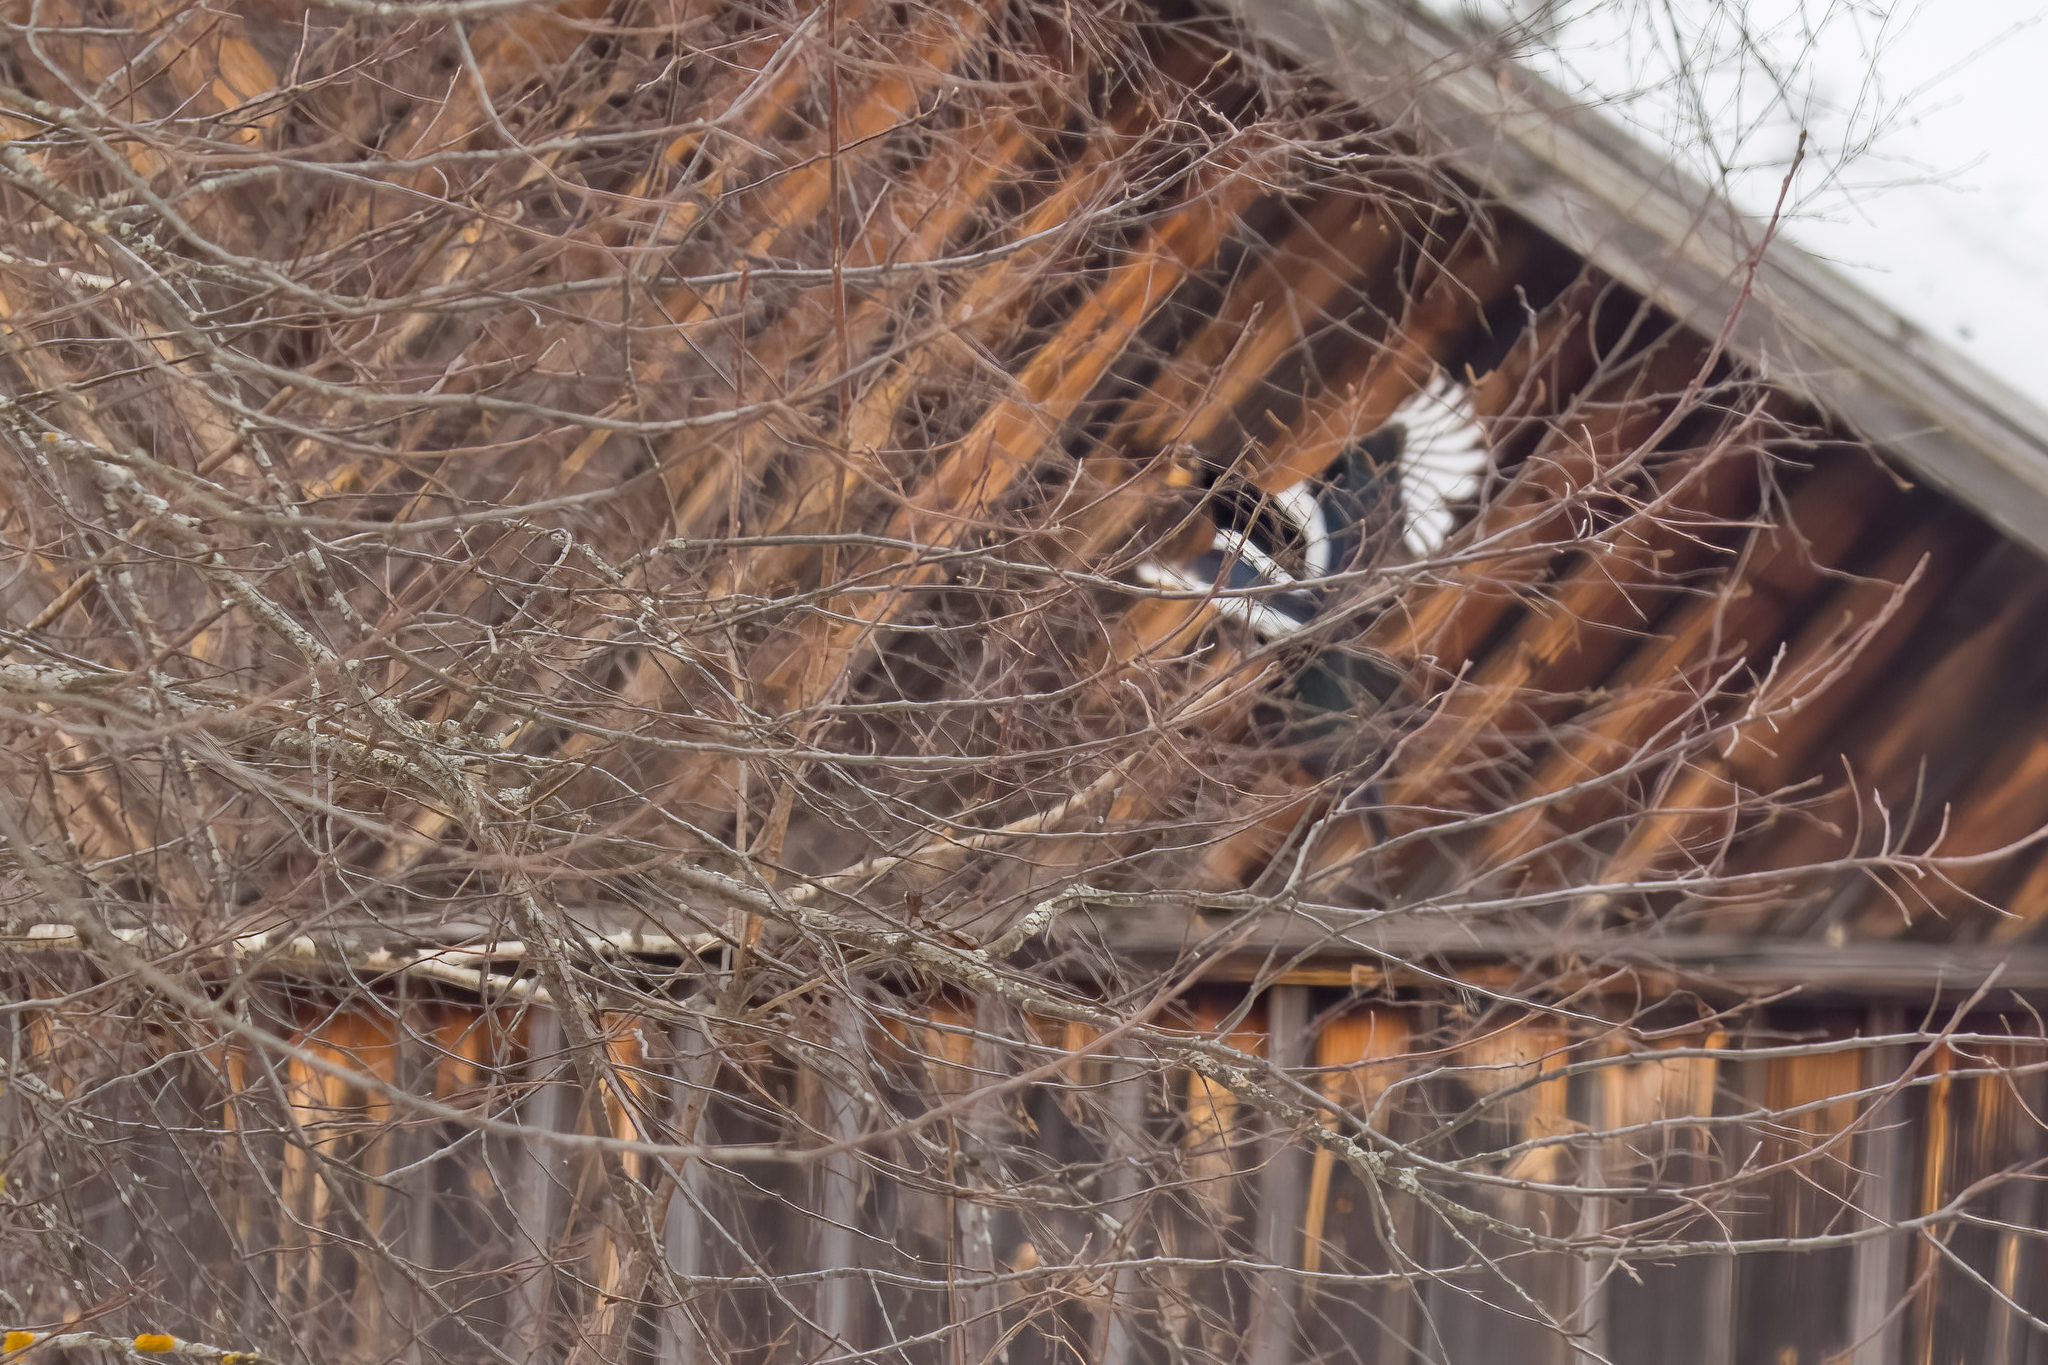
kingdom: Animalia
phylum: Chordata
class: Aves
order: Passeriformes
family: Corvidae
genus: Pica
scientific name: Pica pica
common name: Eurasian magpie
